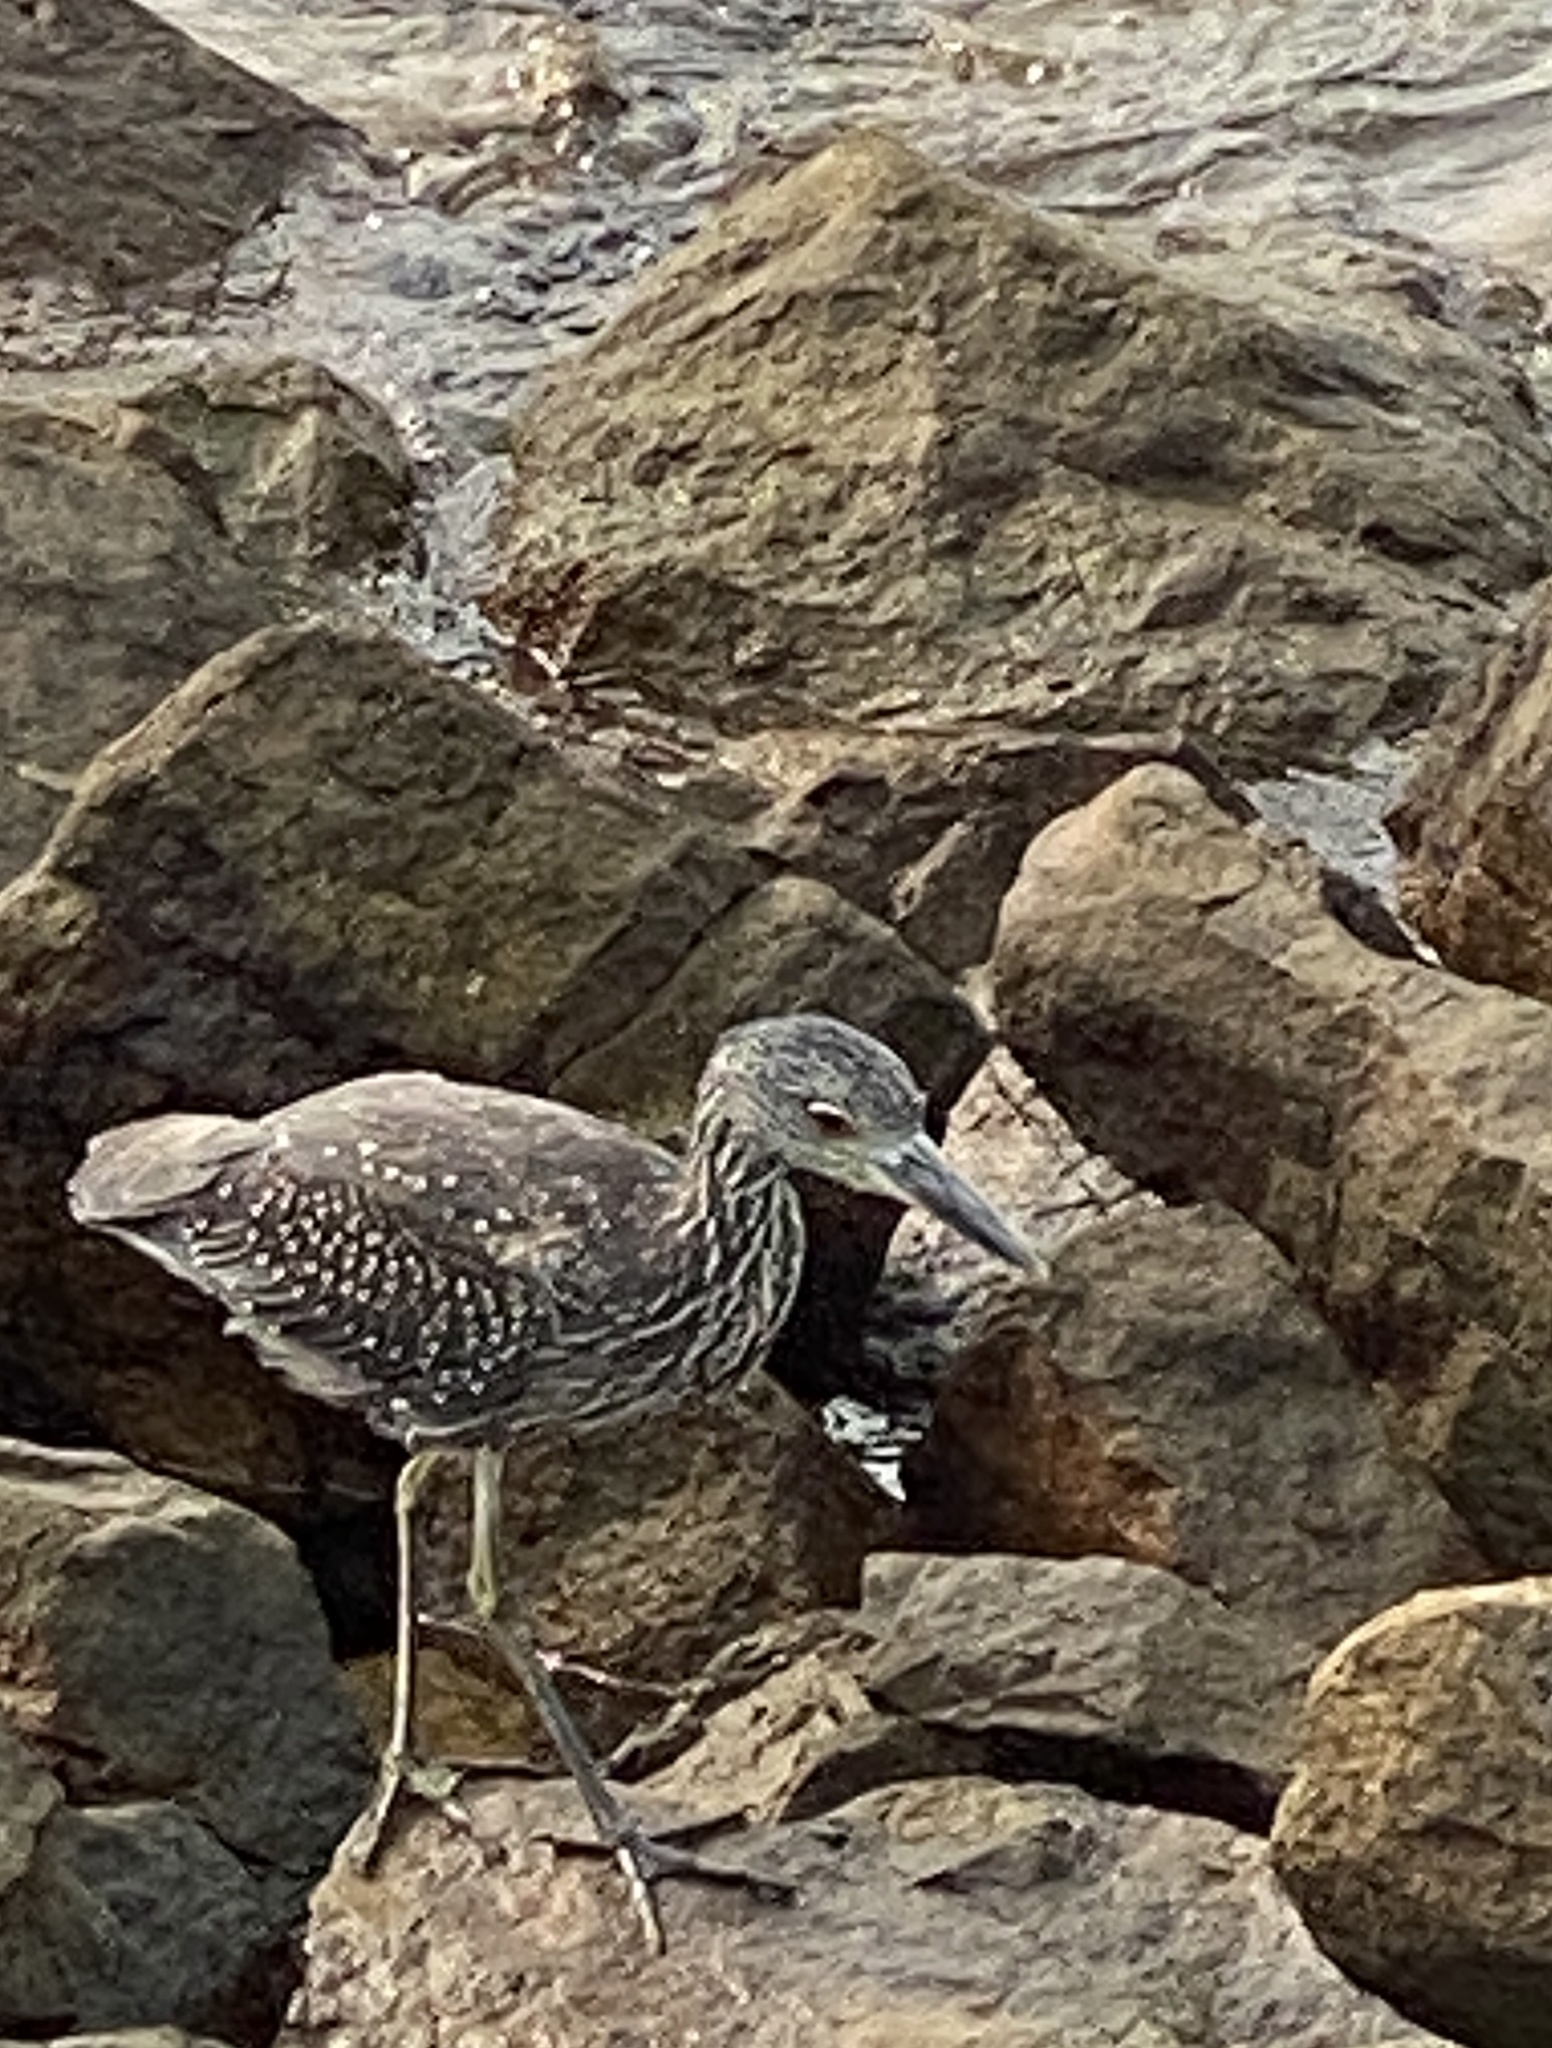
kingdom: Animalia
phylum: Chordata
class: Aves
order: Pelecaniformes
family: Ardeidae
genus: Nyctanassa
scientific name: Nyctanassa violacea
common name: Yellow-crowned night heron
